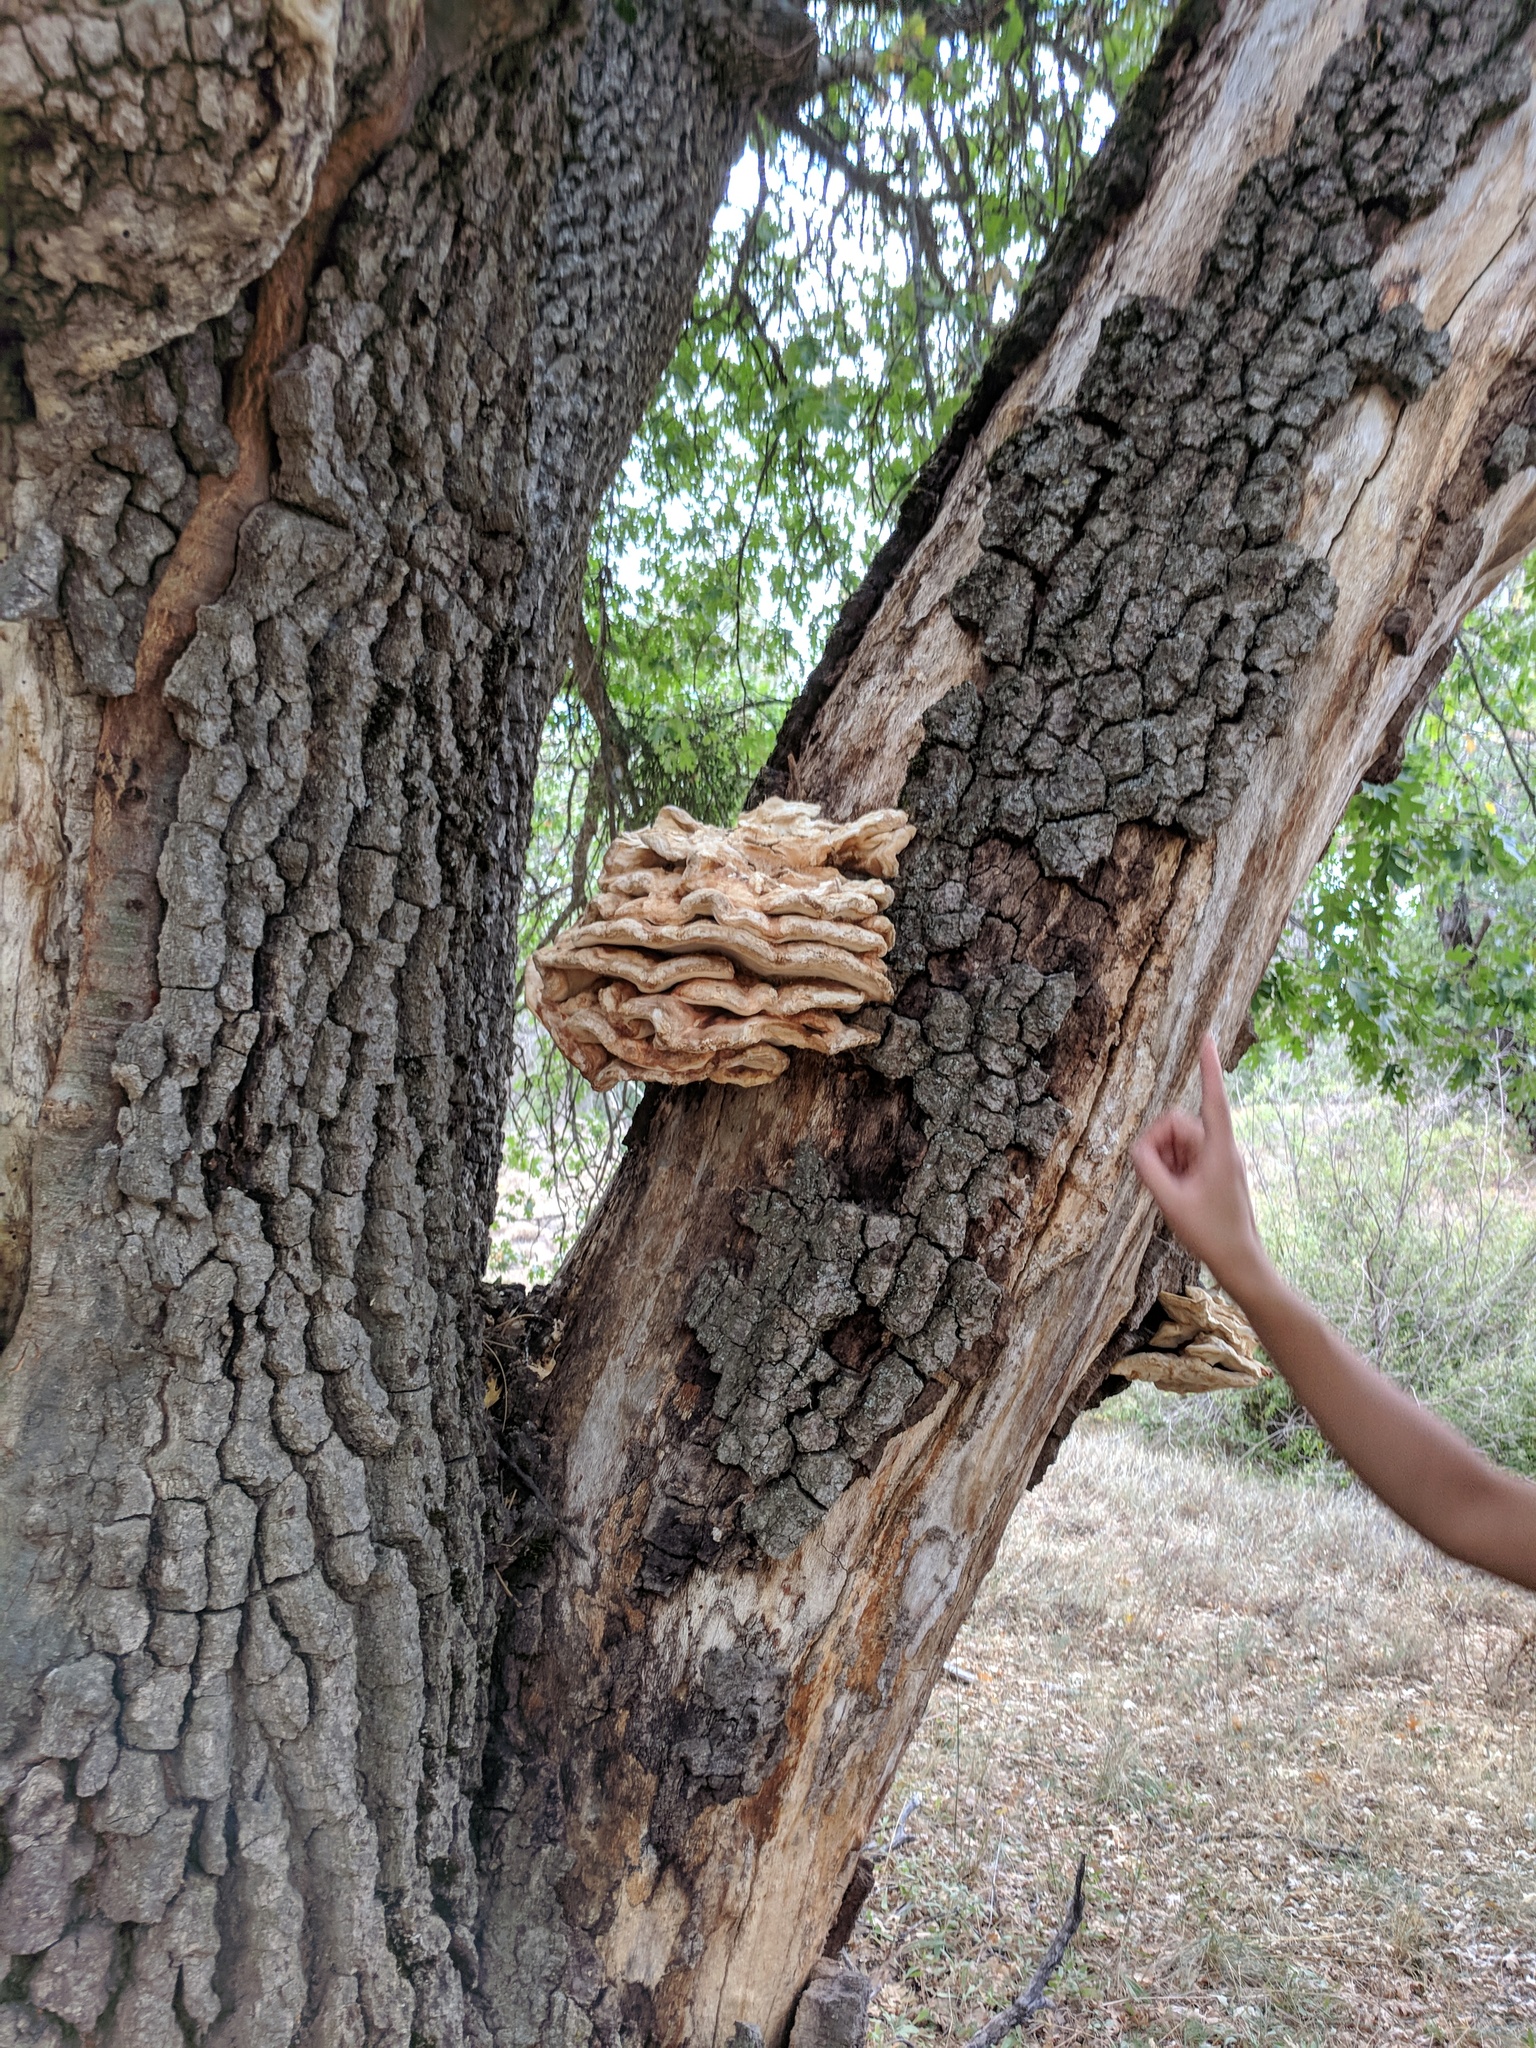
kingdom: Fungi
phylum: Basidiomycota
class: Agaricomycetes
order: Polyporales
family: Laetiporaceae
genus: Laetiporus
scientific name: Laetiporus gilbertsonii
